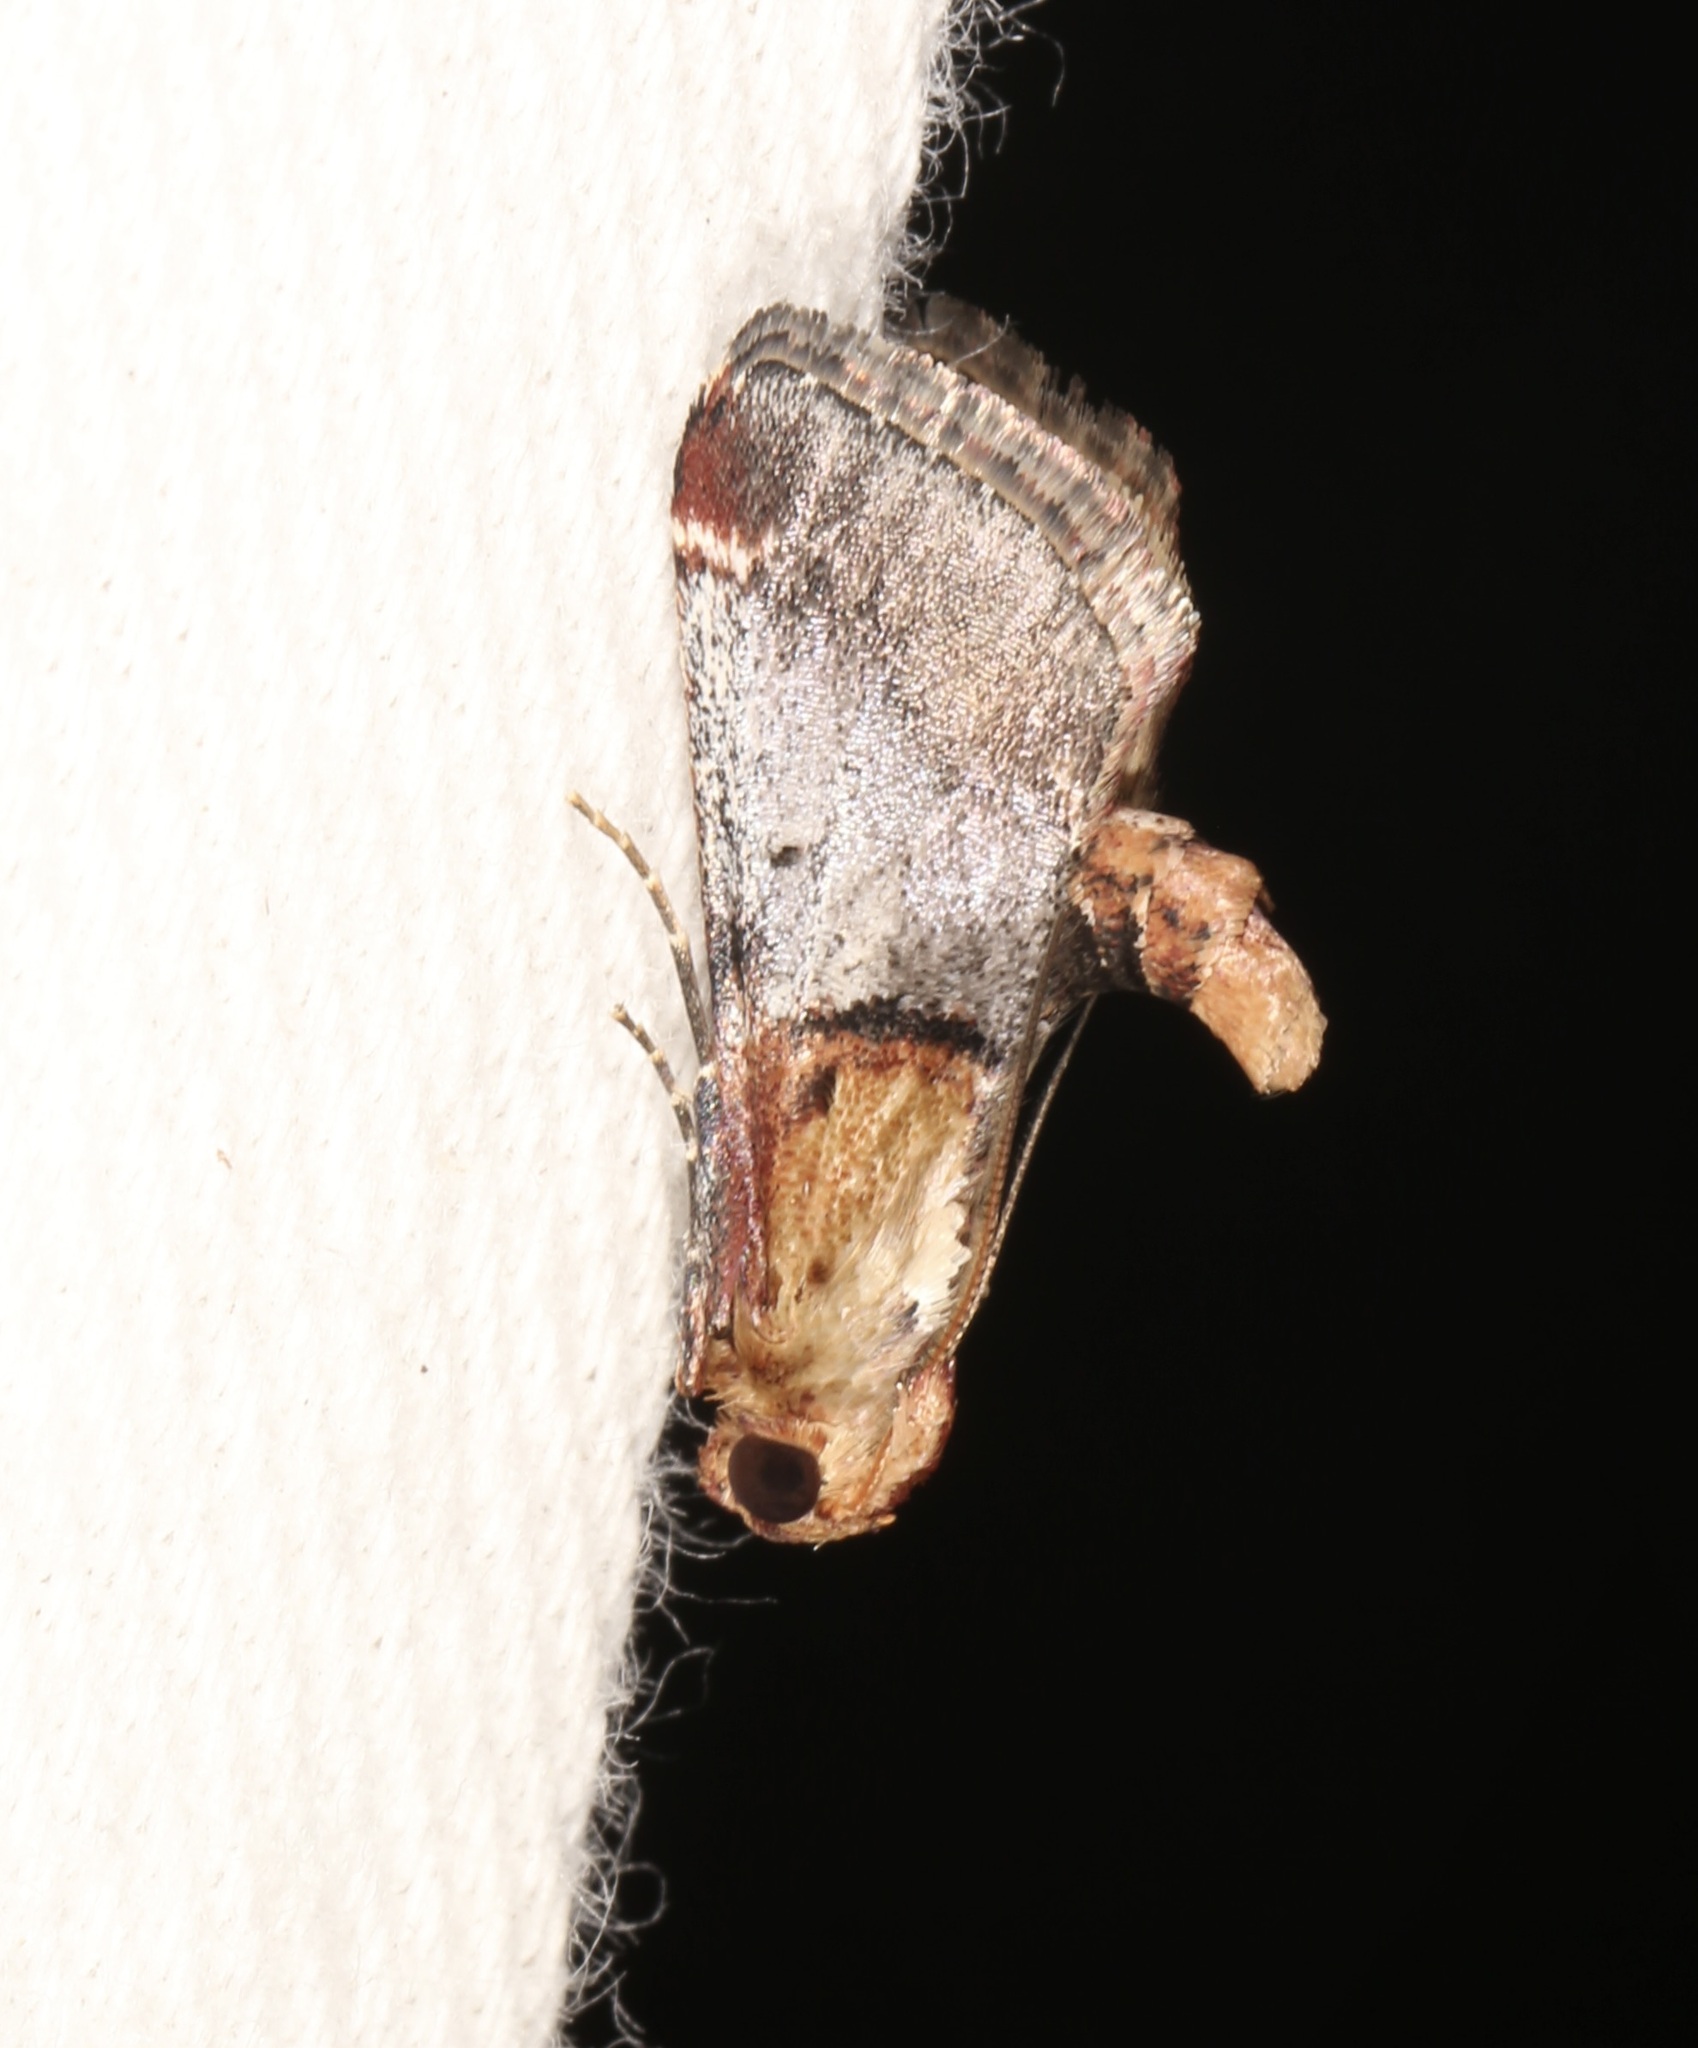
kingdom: Animalia
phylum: Arthropoda
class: Insecta
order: Lepidoptera
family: Pyralidae
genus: Cacozelia
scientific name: Cacozelia basiochrealis
